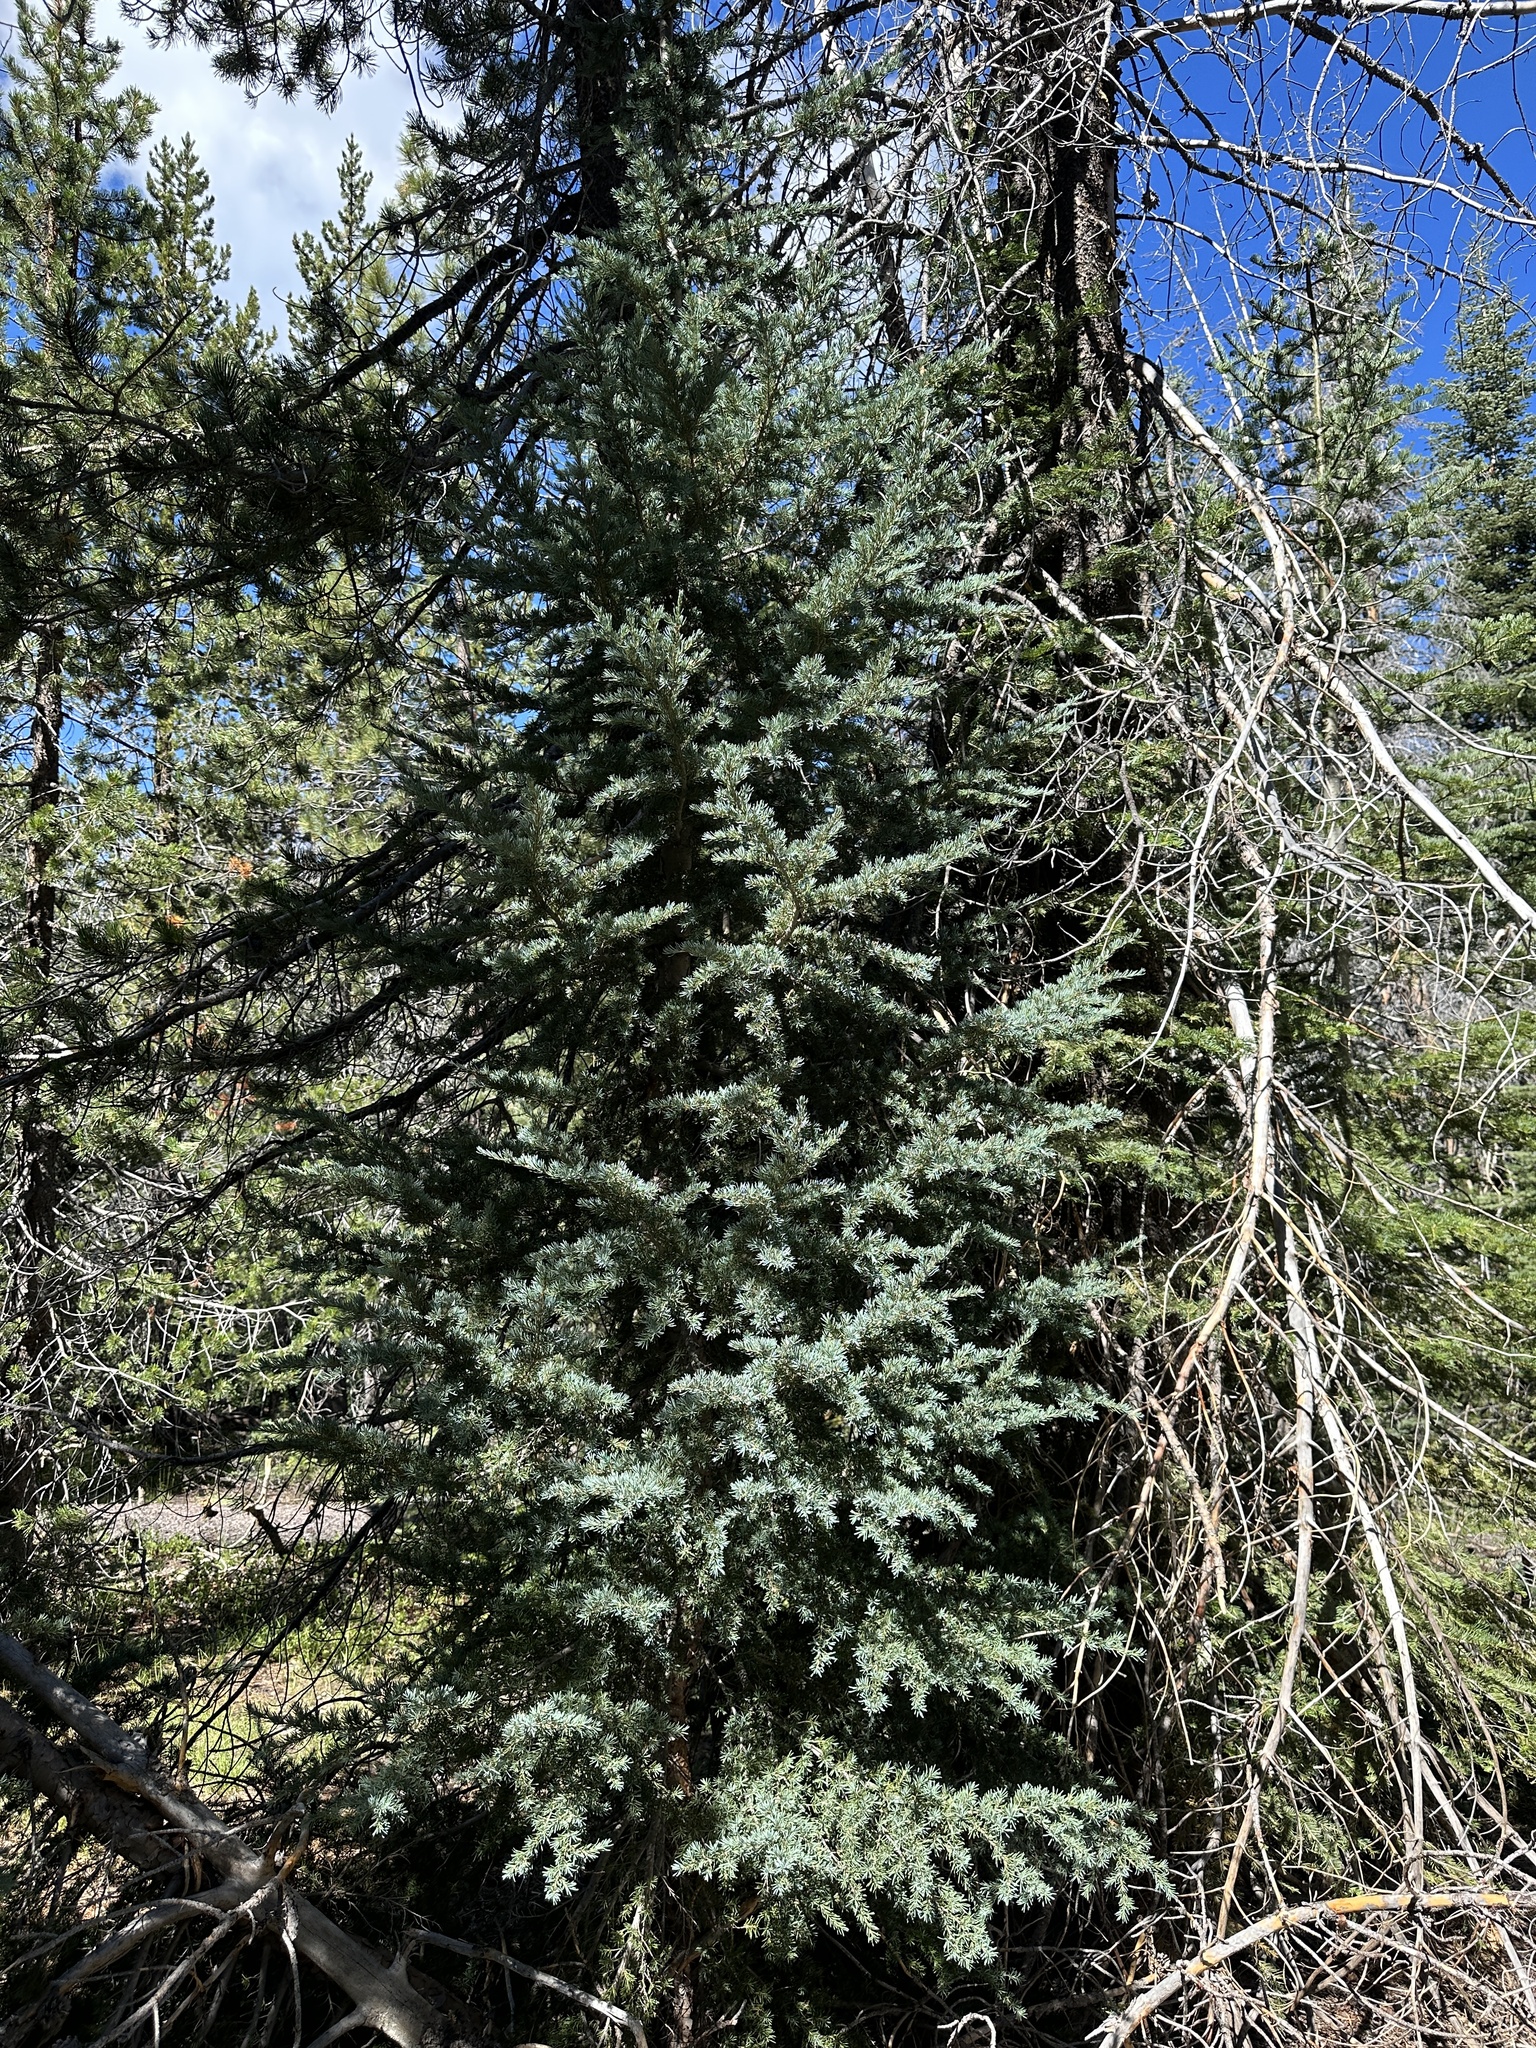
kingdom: Plantae
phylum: Tracheophyta
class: Pinopsida
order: Pinales
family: Pinaceae
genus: Tsuga
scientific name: Tsuga mertensiana
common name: Mountain hemlock
